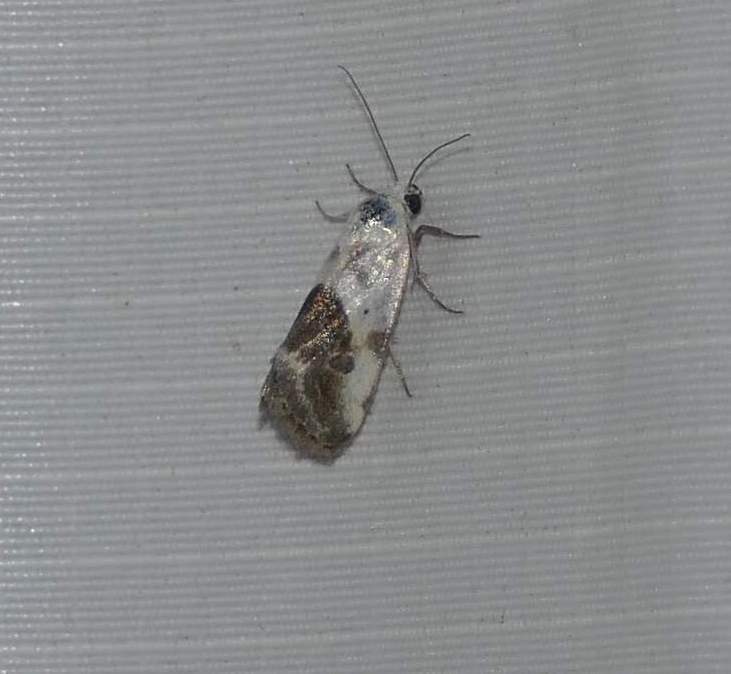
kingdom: Animalia
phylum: Arthropoda
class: Insecta
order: Lepidoptera
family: Noctuidae
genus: Acontia
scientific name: Acontia erastrioides
